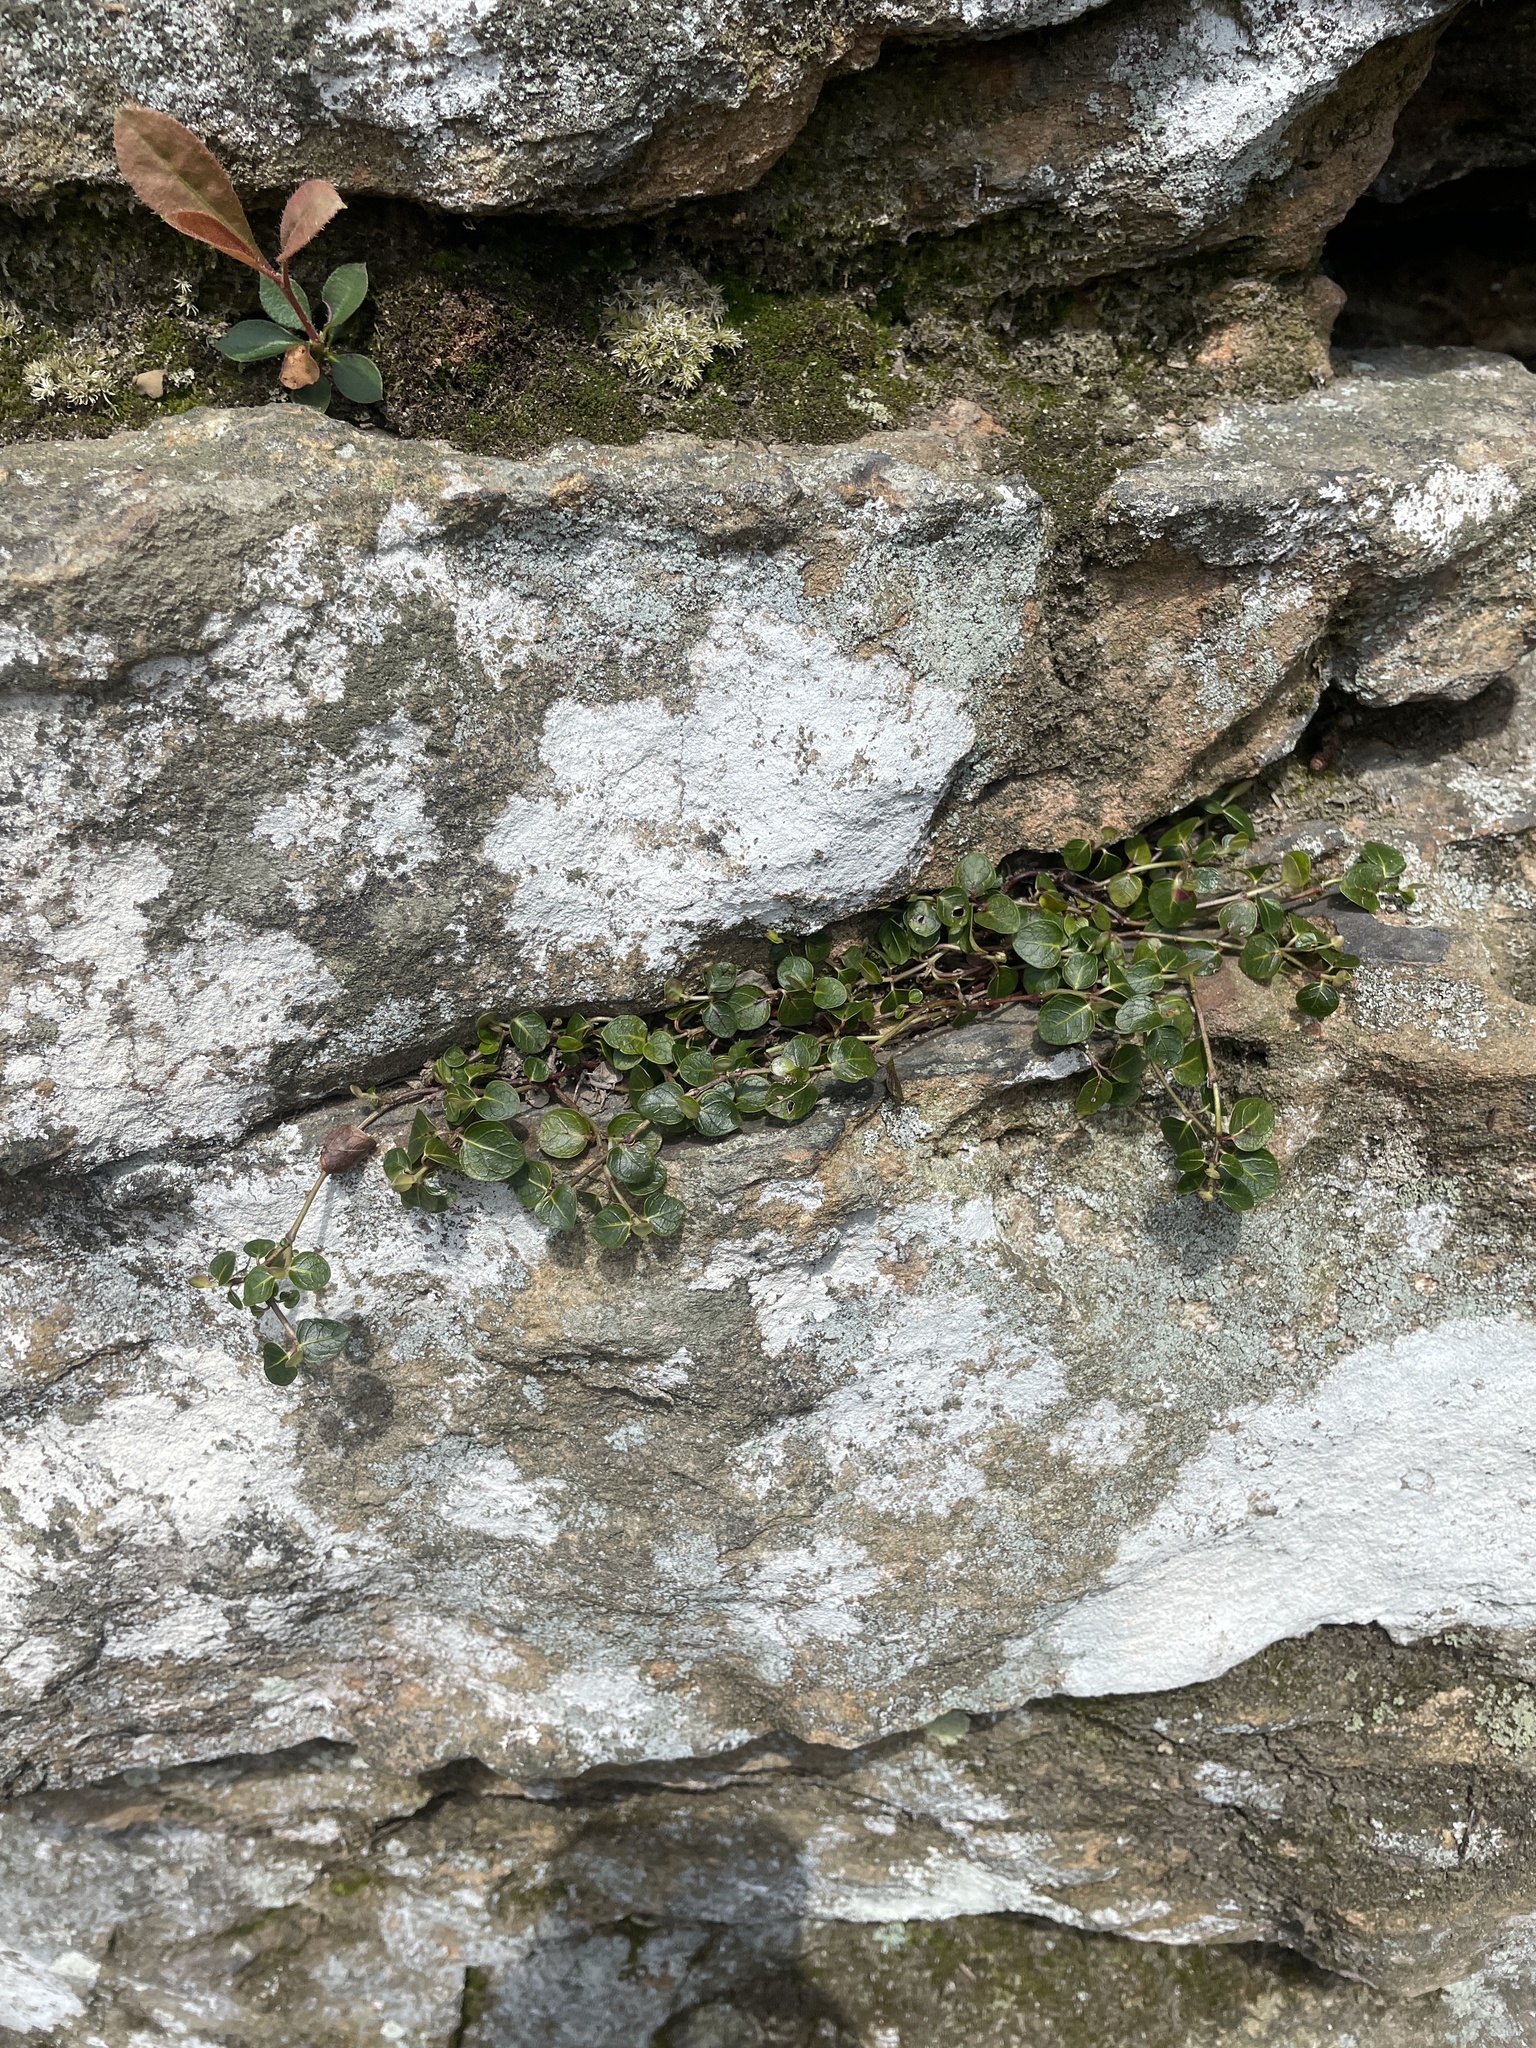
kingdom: Plantae
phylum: Tracheophyta
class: Magnoliopsida
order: Gentianales
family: Rubiaceae
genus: Mitchella
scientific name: Mitchella repens
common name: Partridge-berry
